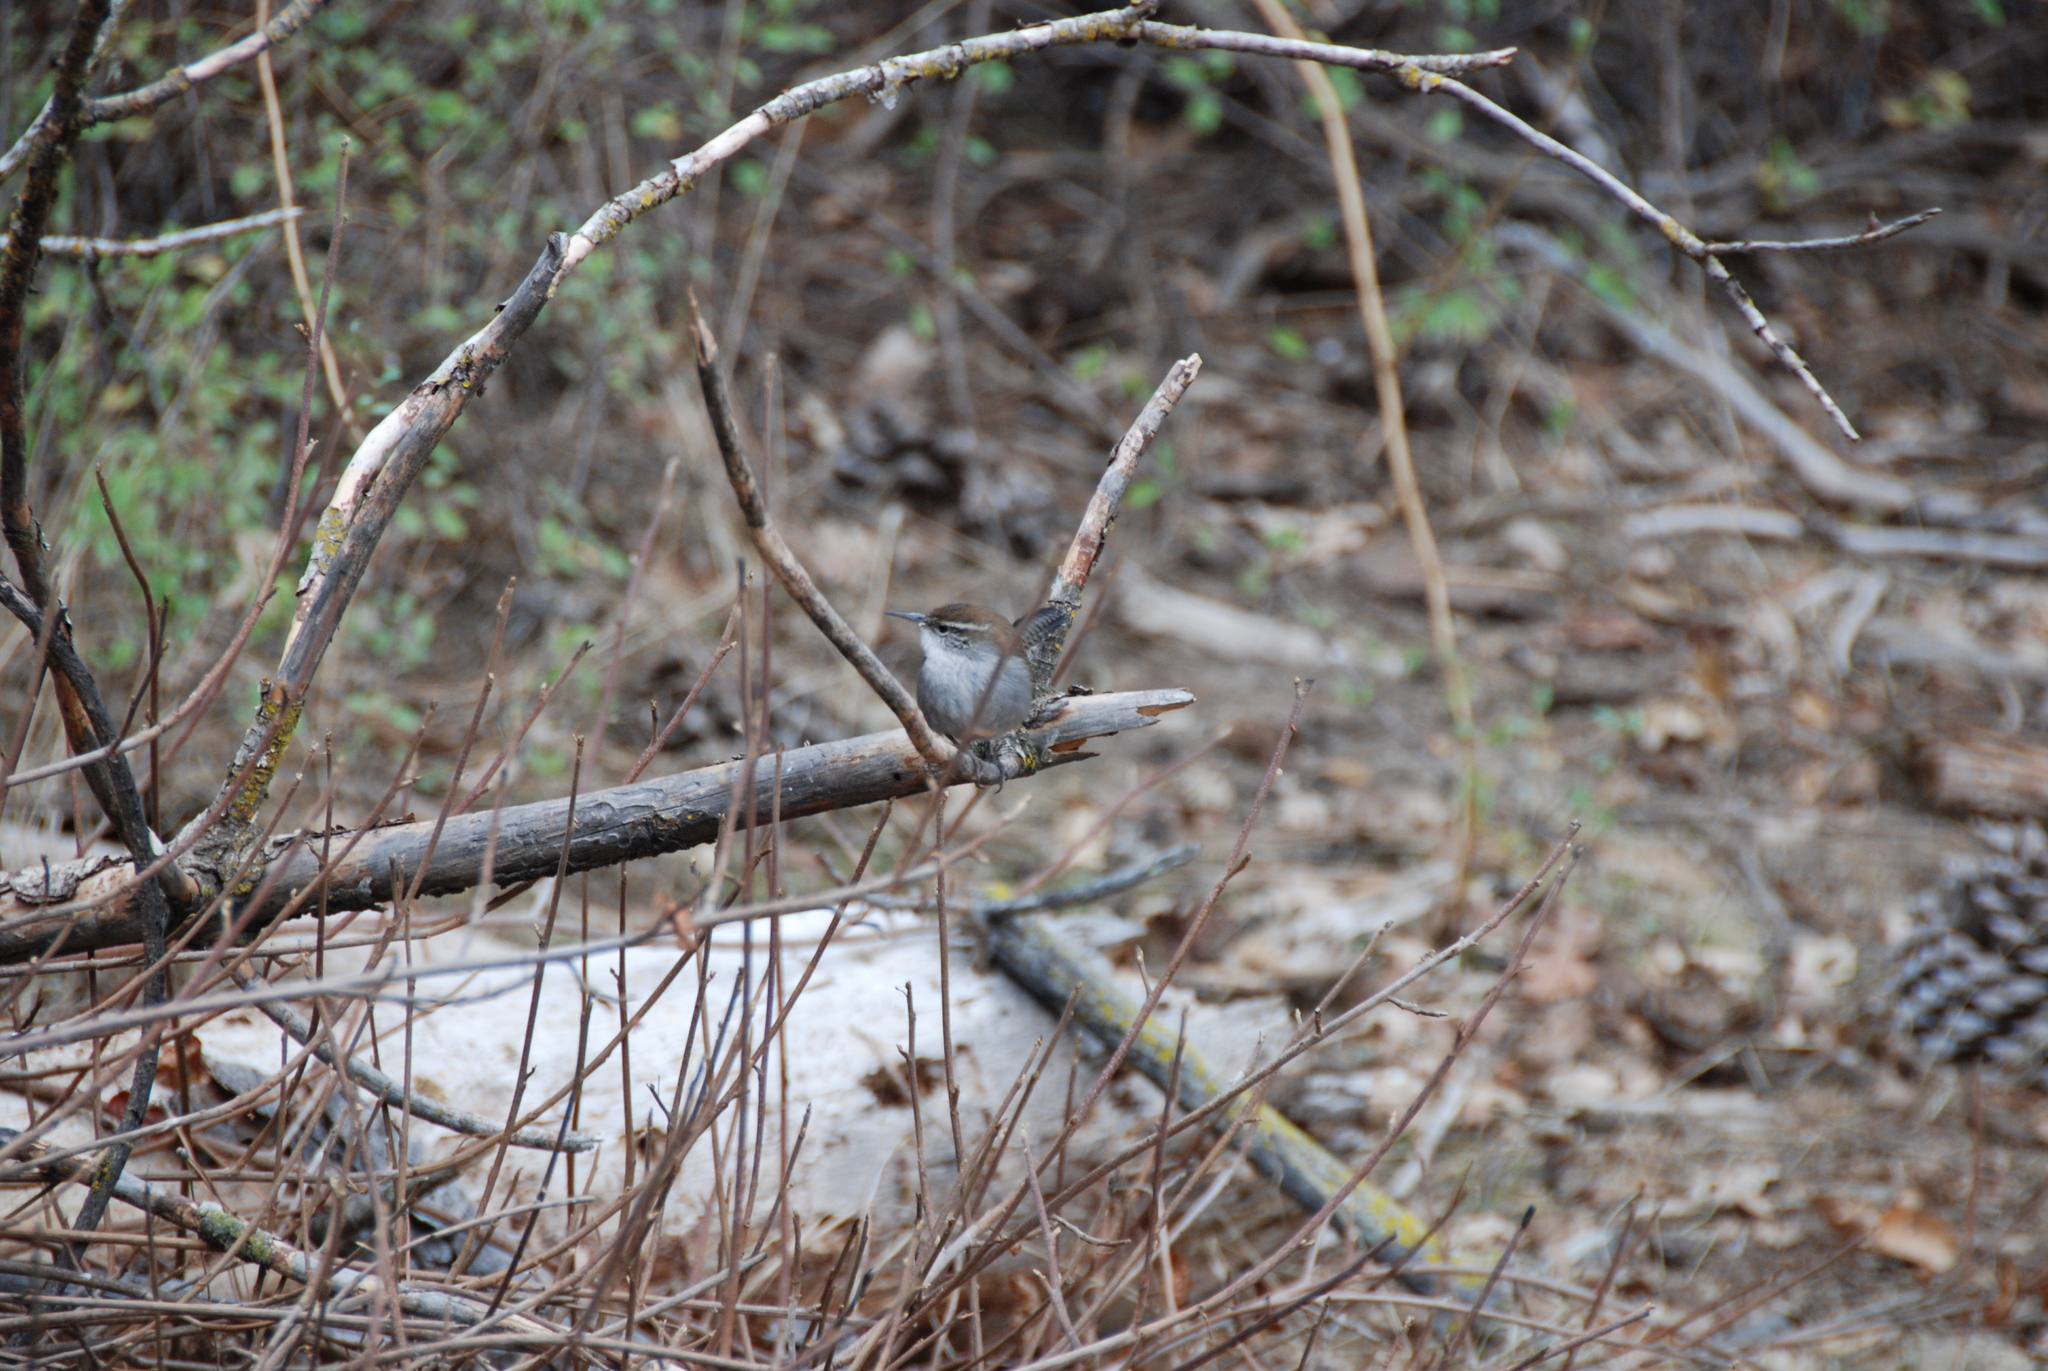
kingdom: Animalia
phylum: Chordata
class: Aves
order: Passeriformes
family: Troglodytidae
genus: Thryomanes
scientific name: Thryomanes bewickii
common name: Bewick's wren
